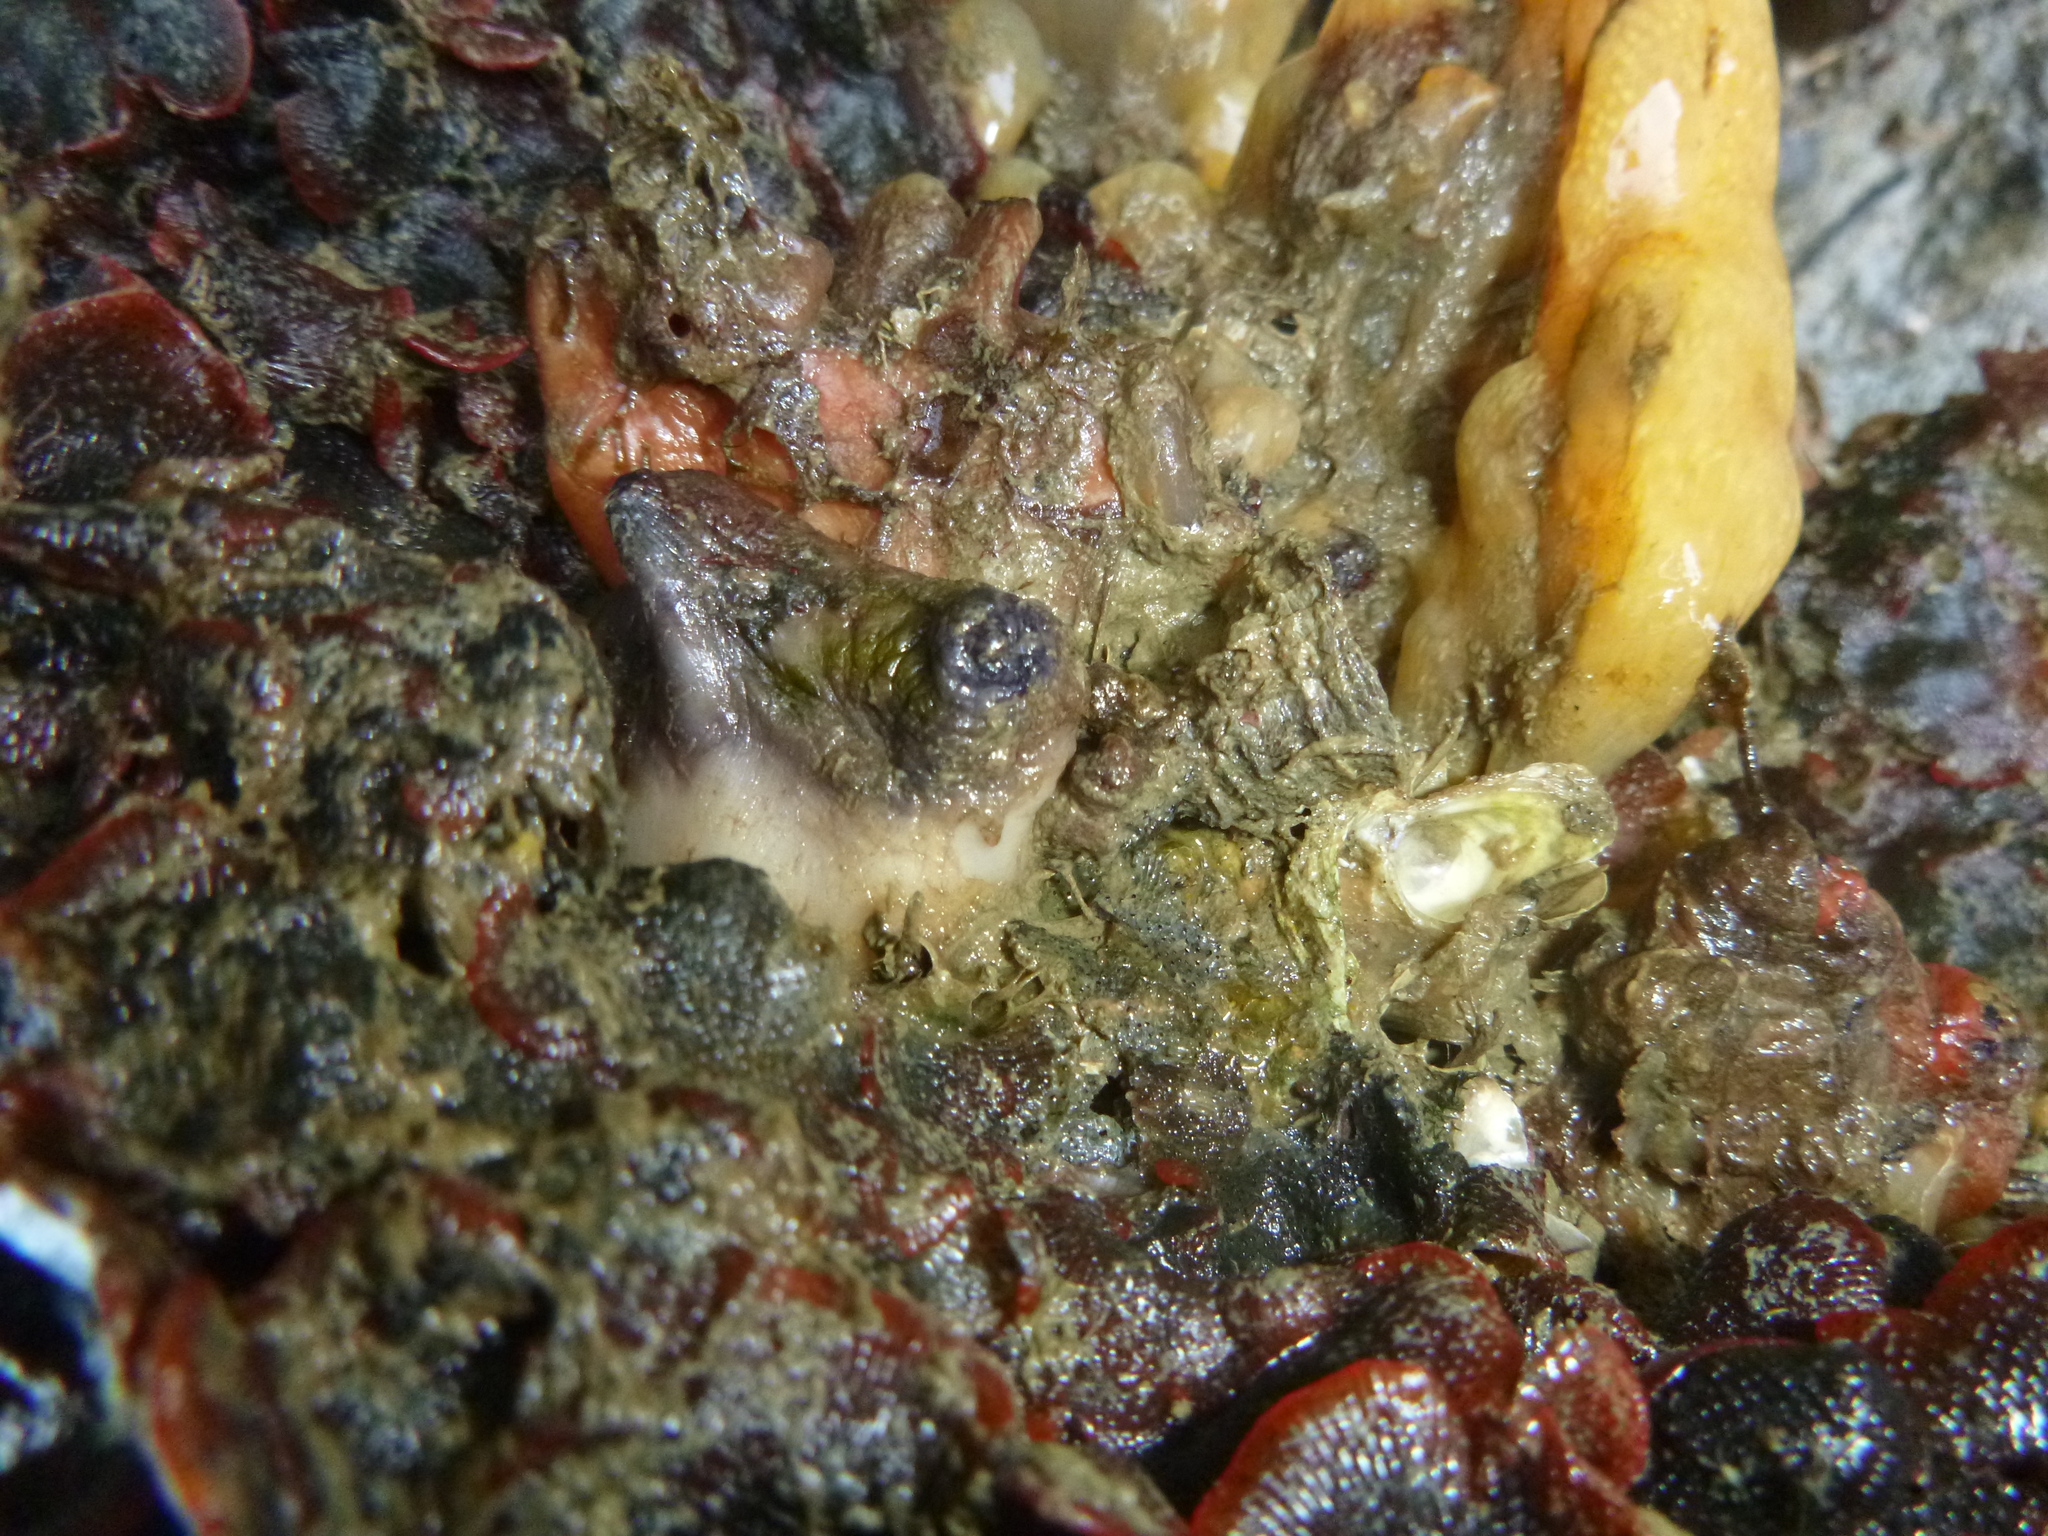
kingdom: Animalia
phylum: Chordata
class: Ascidiacea
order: Stolidobranchia
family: Styelidae
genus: Asterocarpa
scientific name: Asterocarpa coerulea
